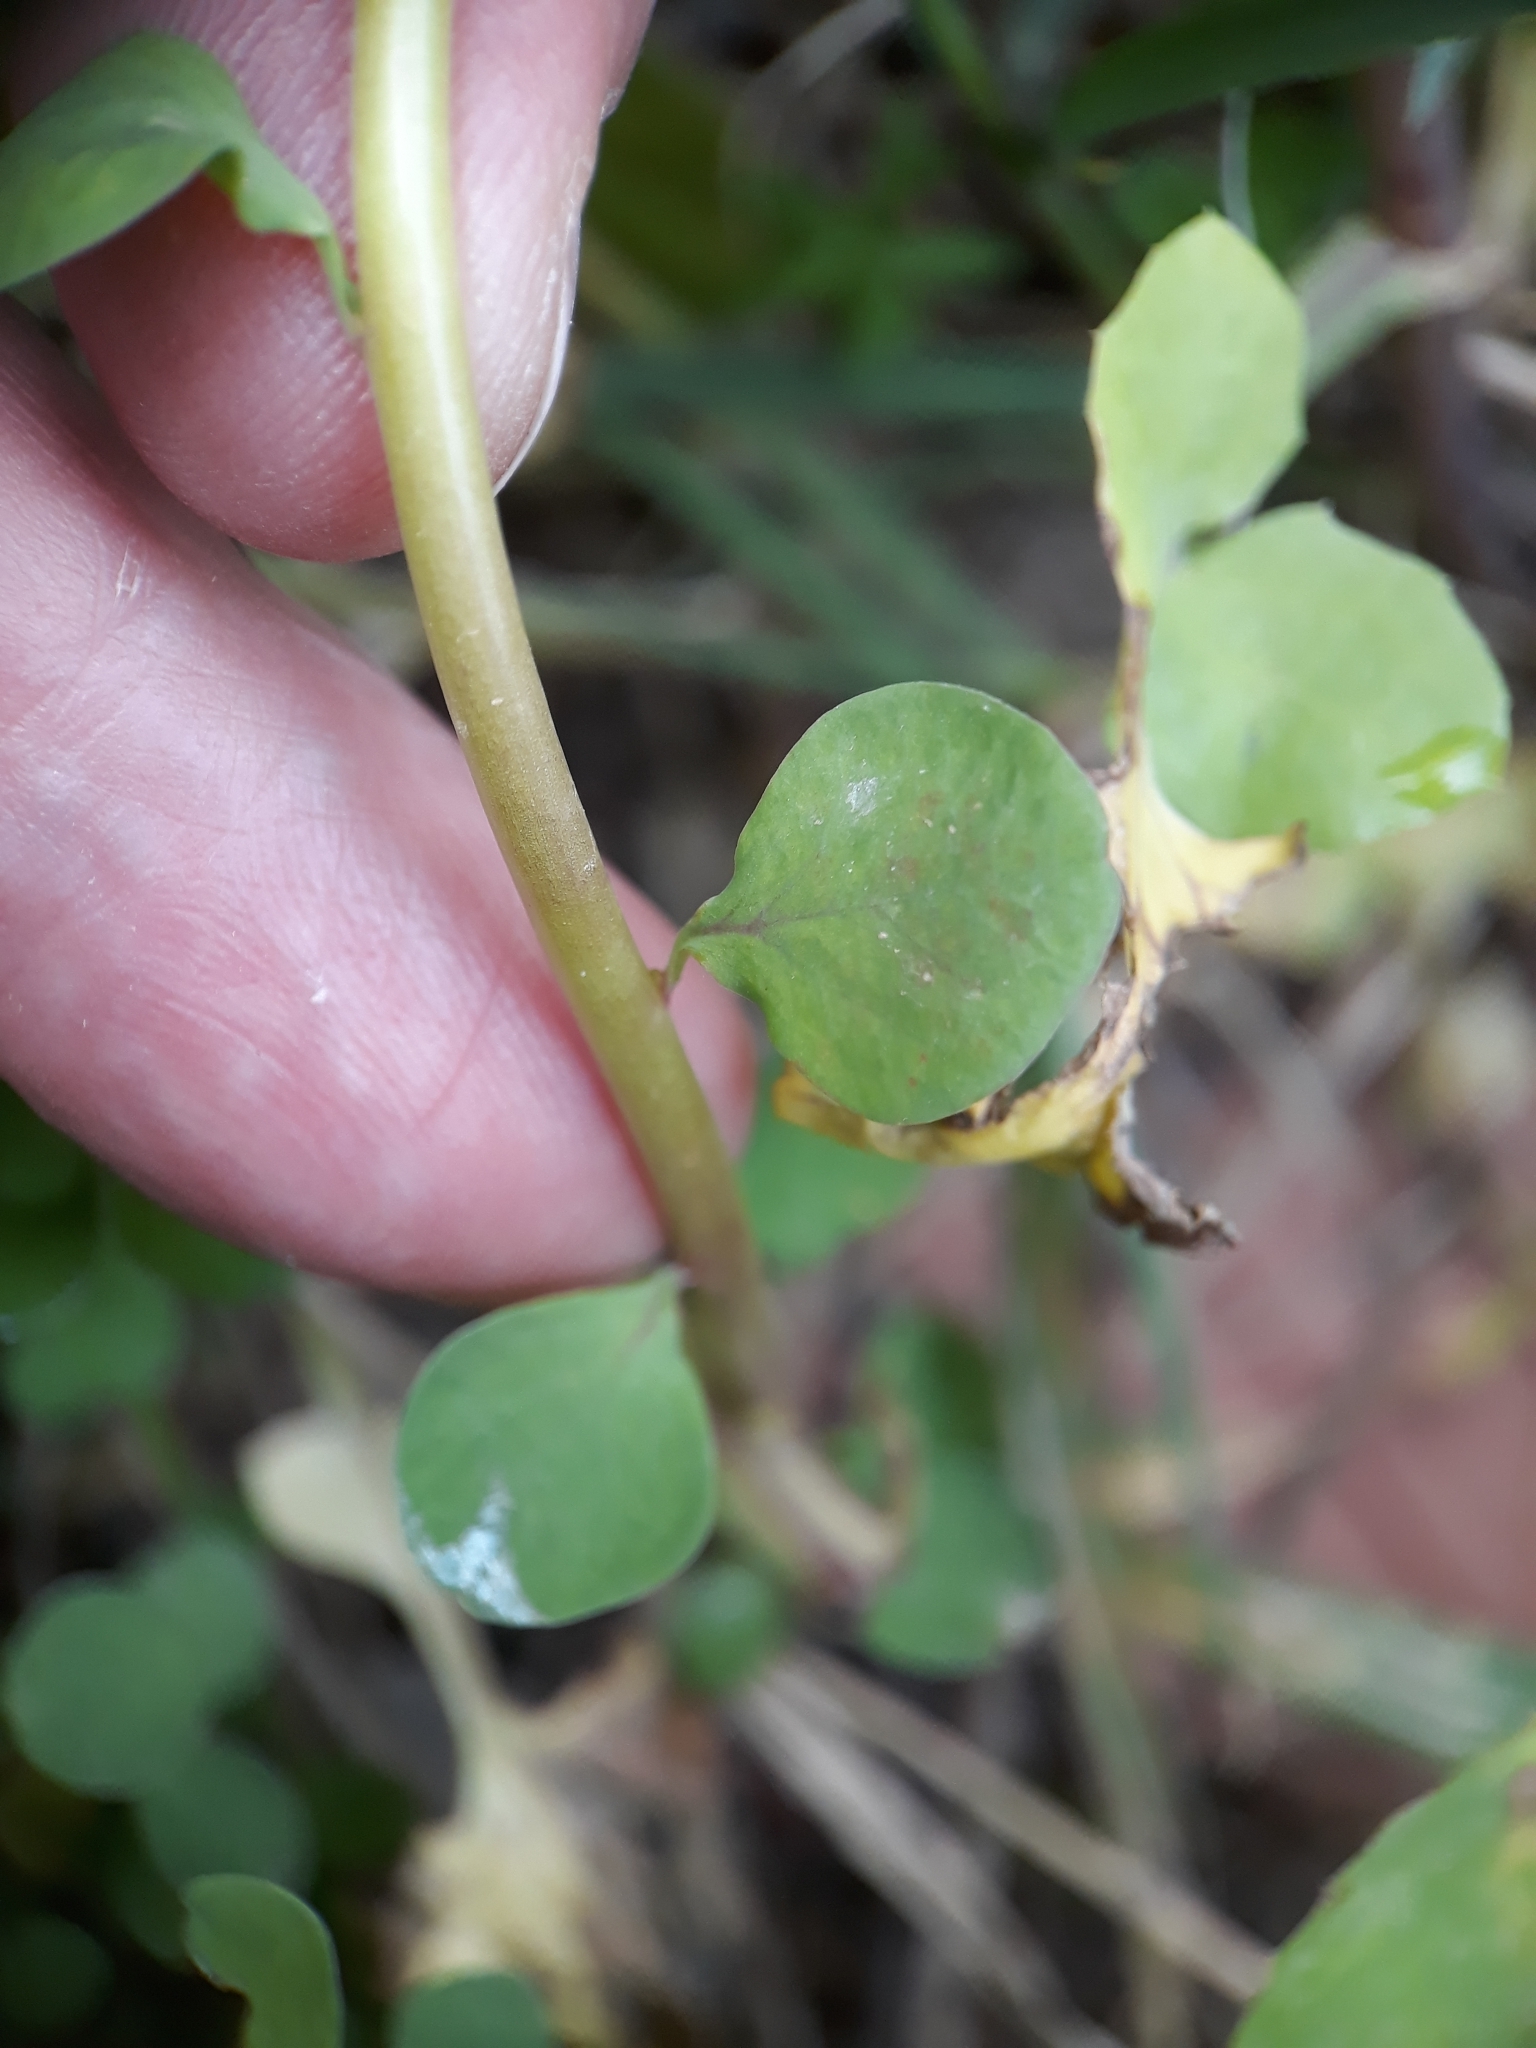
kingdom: Plantae
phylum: Tracheophyta
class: Magnoliopsida
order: Malpighiales
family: Euphorbiaceae
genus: Euphorbia
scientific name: Euphorbia peplus
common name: Petty spurge
